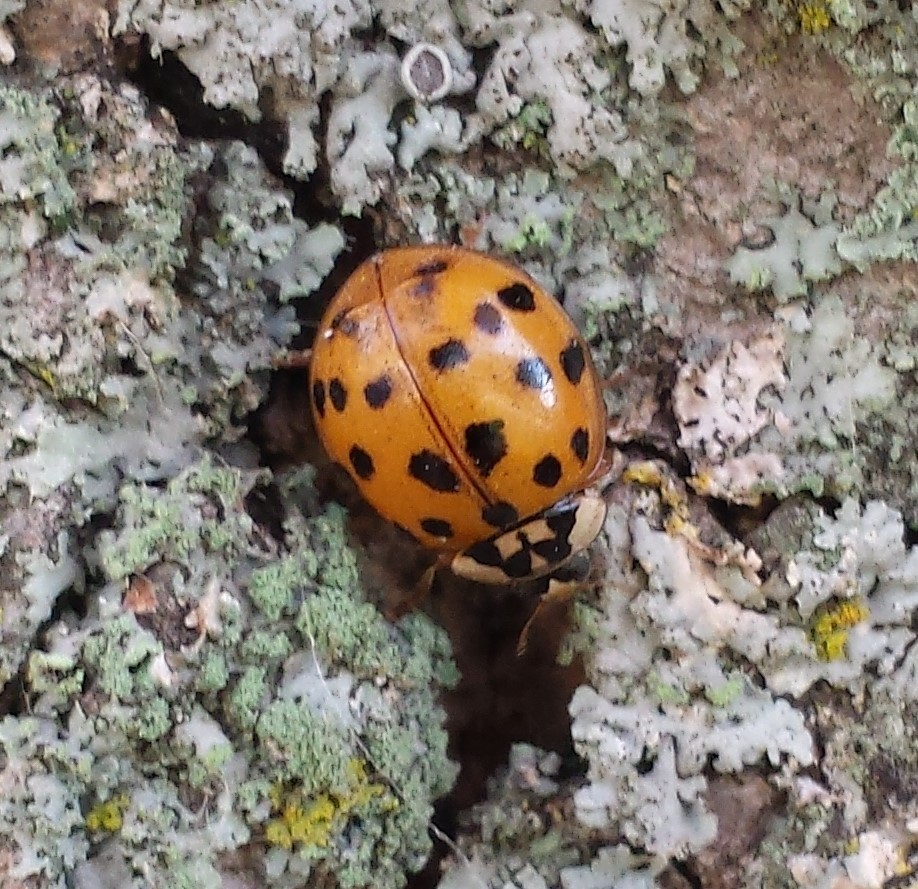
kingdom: Animalia
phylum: Arthropoda
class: Insecta
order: Coleoptera
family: Coccinellidae
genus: Harmonia
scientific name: Harmonia axyridis
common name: Harlequin ladybird
